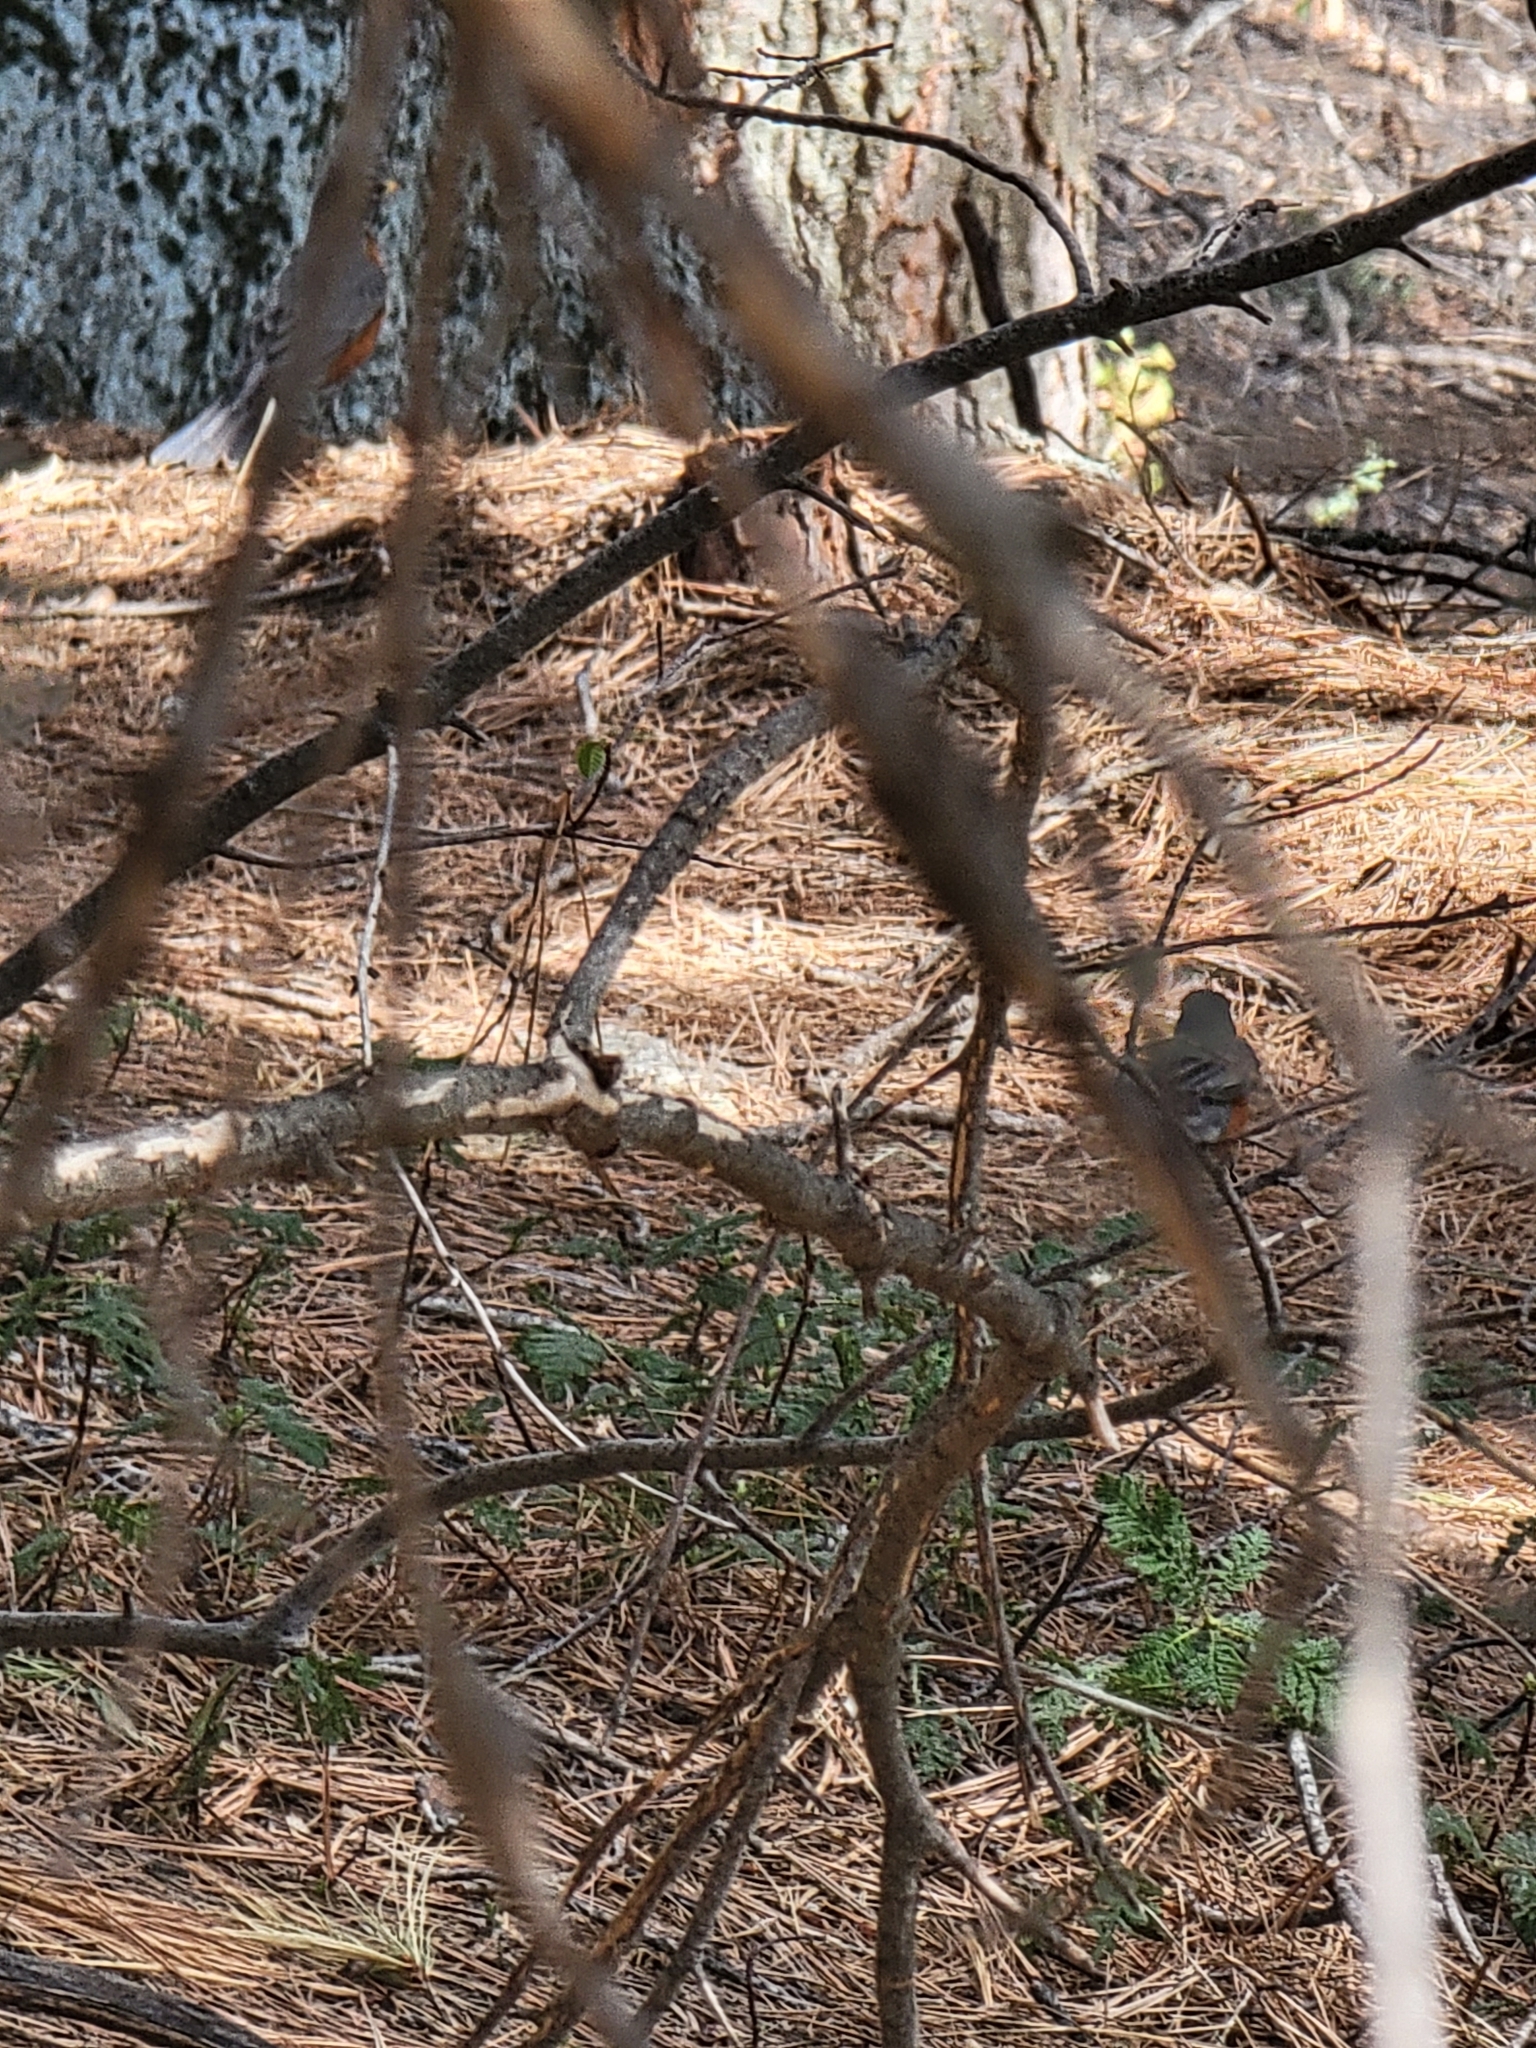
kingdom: Animalia
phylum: Chordata
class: Aves
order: Passeriformes
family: Turdidae
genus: Turdus
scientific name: Turdus migratorius
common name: American robin
